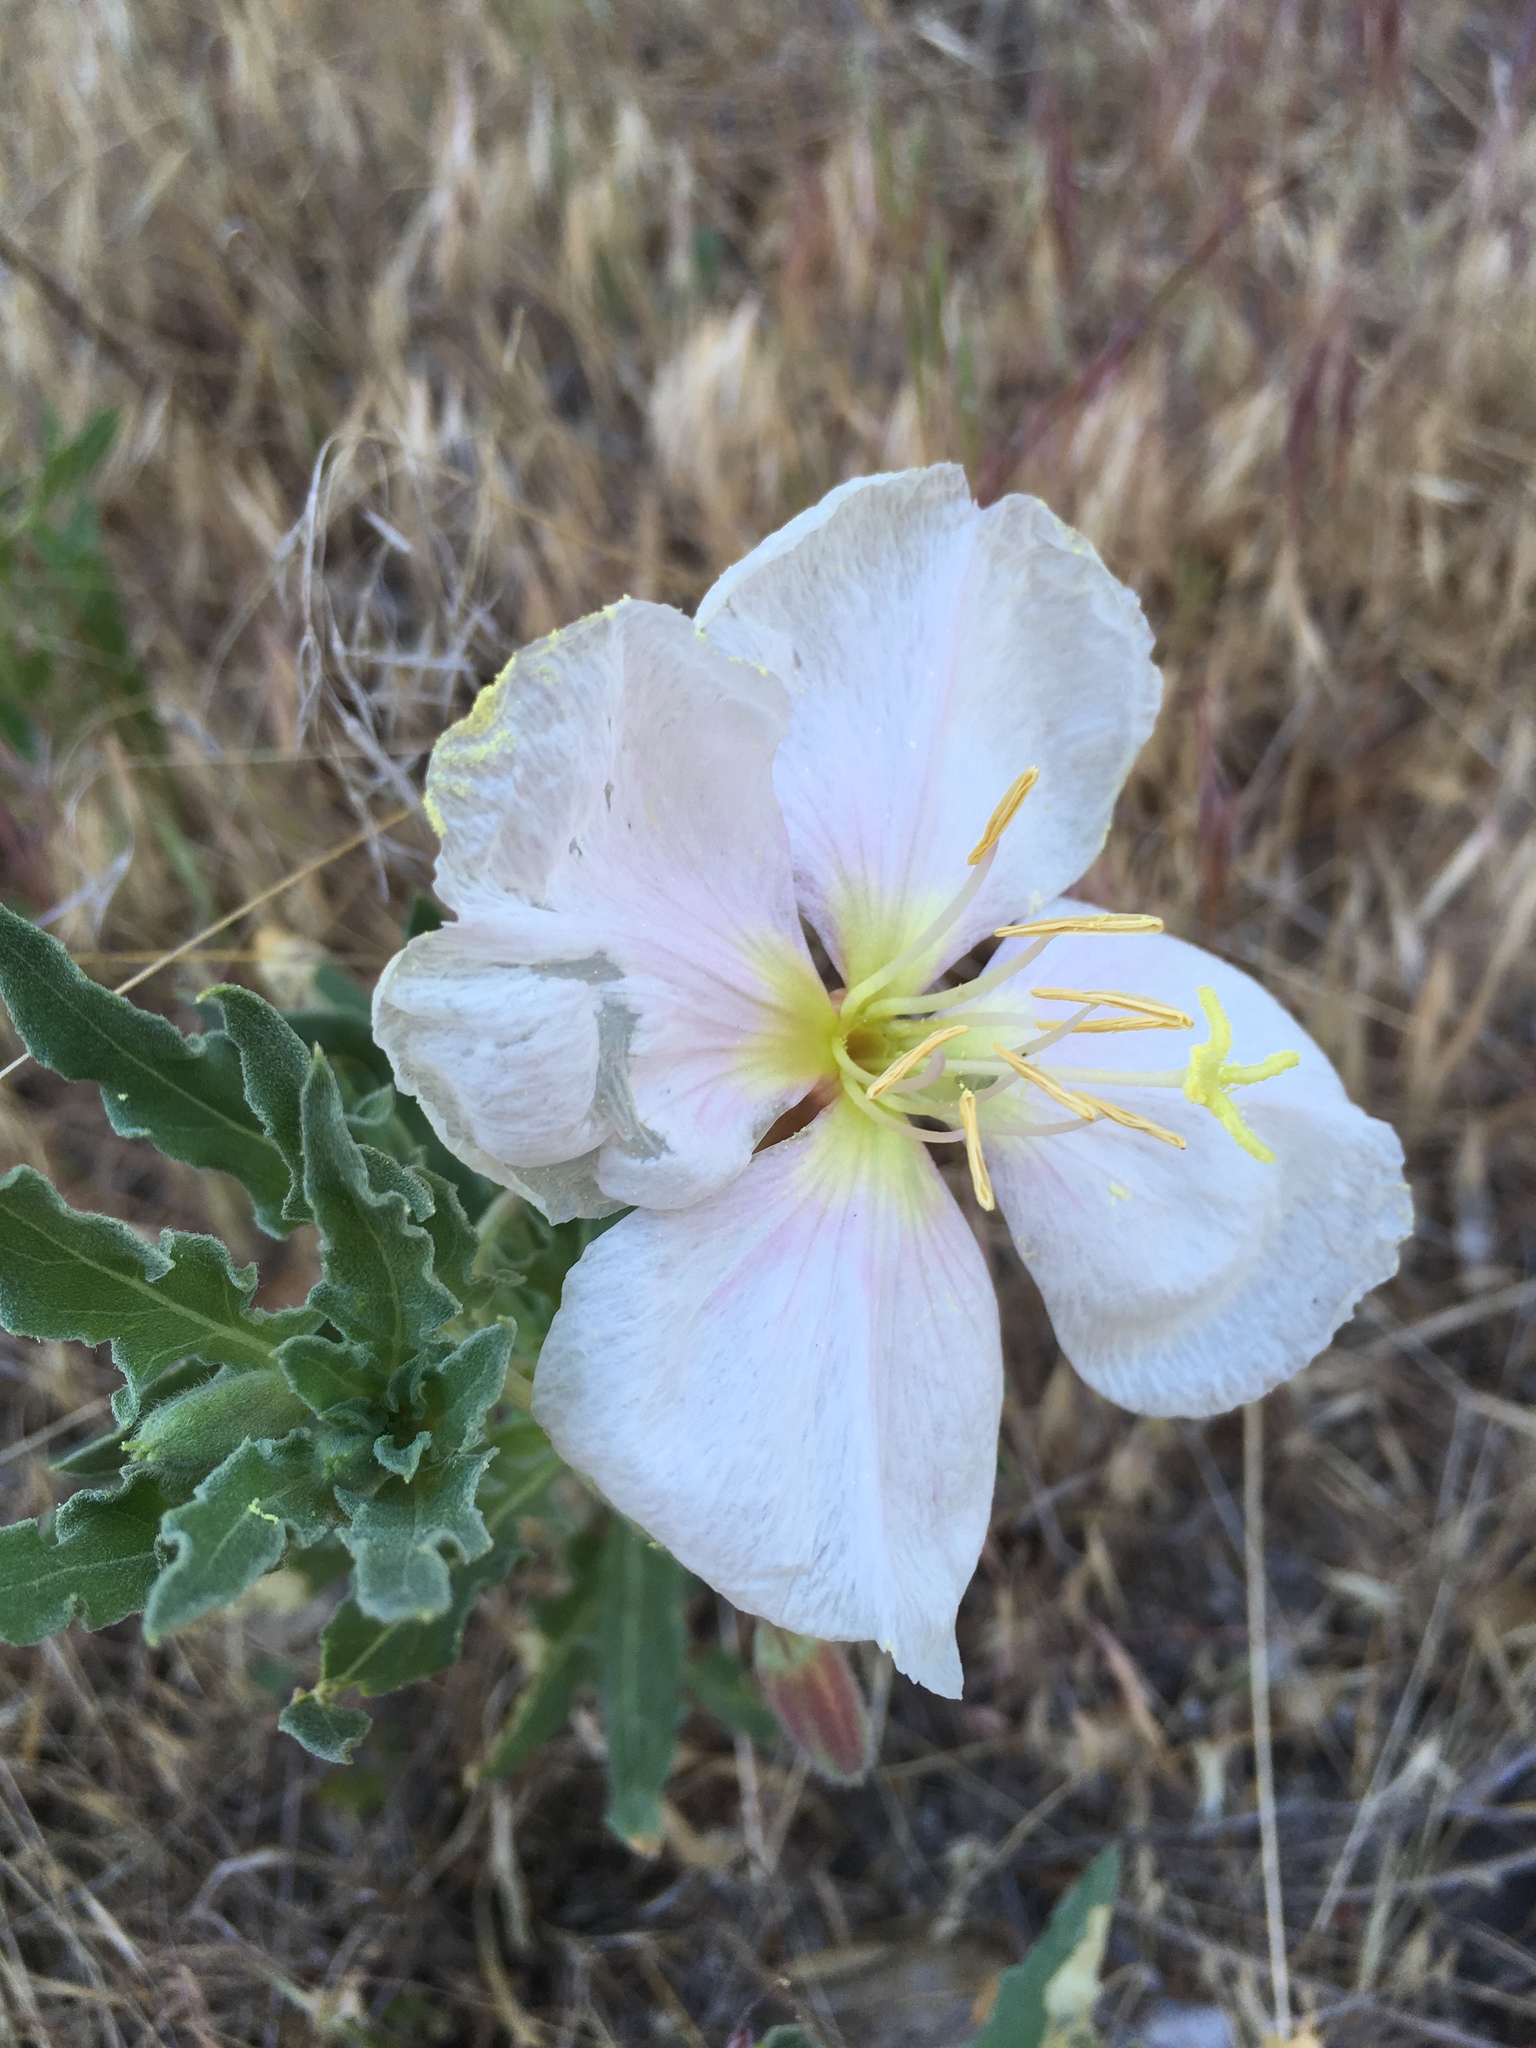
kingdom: Plantae
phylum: Tracheophyta
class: Magnoliopsida
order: Myrtales
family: Onagraceae
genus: Oenothera
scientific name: Oenothera californica
